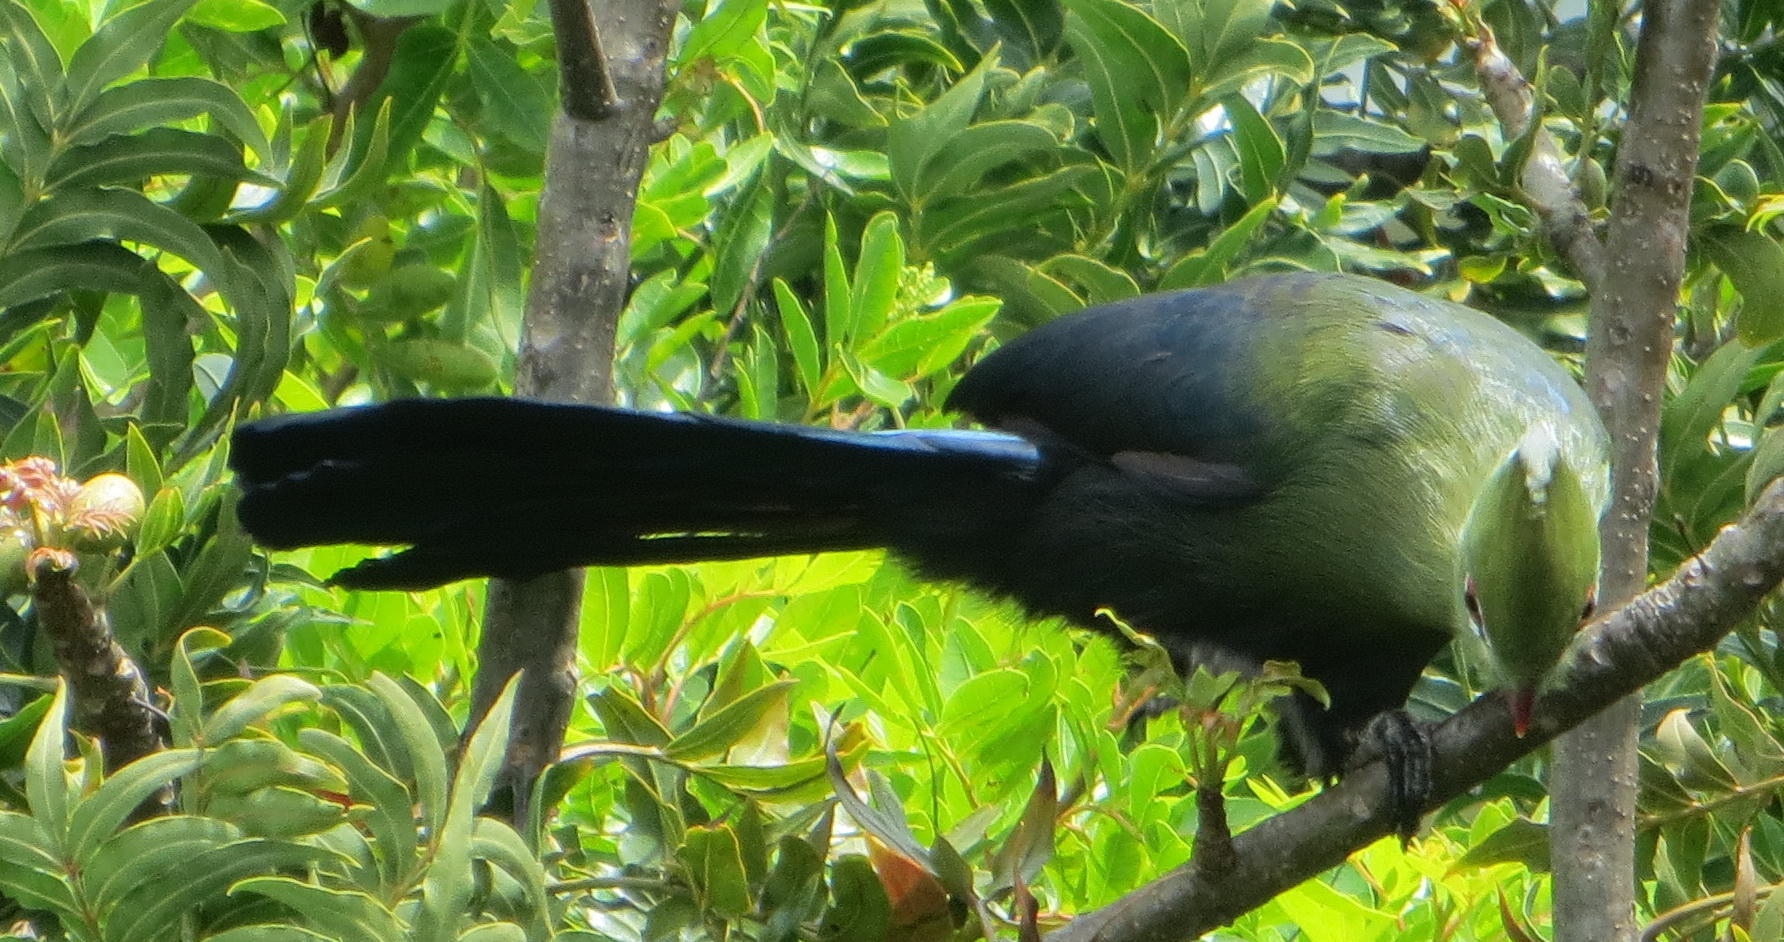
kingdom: Animalia
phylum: Chordata
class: Aves
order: Musophagiformes
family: Musophagidae
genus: Tauraco
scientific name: Tauraco corythaix
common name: Knysna turaco
